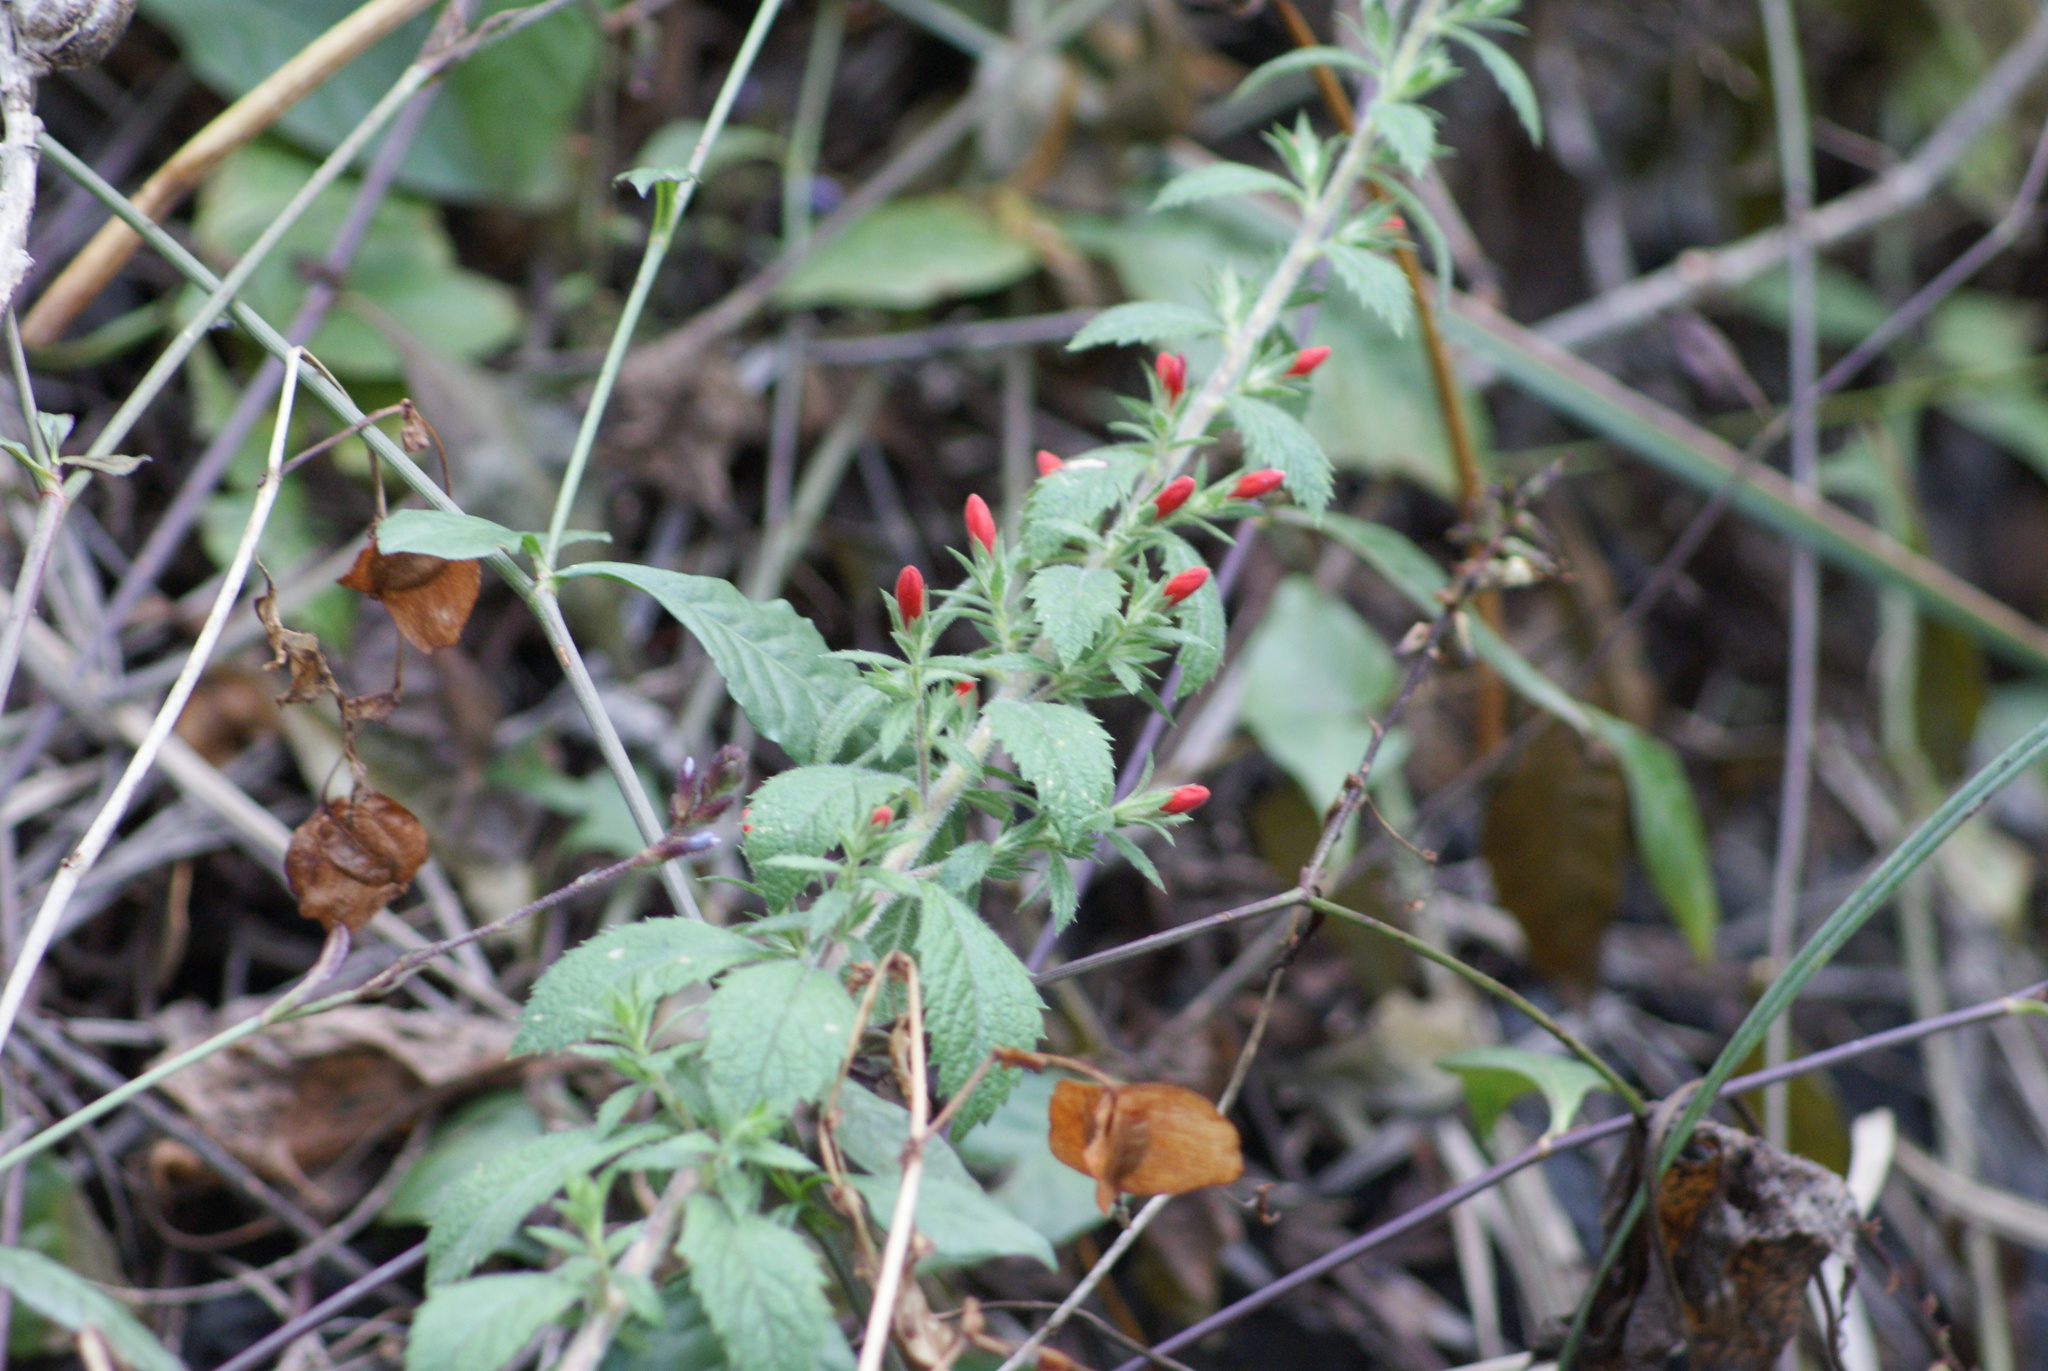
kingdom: Plantae
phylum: Tracheophyta
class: Magnoliopsida
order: Ericales
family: Polemoniaceae
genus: Loeselia
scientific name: Loeselia mexicana
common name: Mexican false calico
